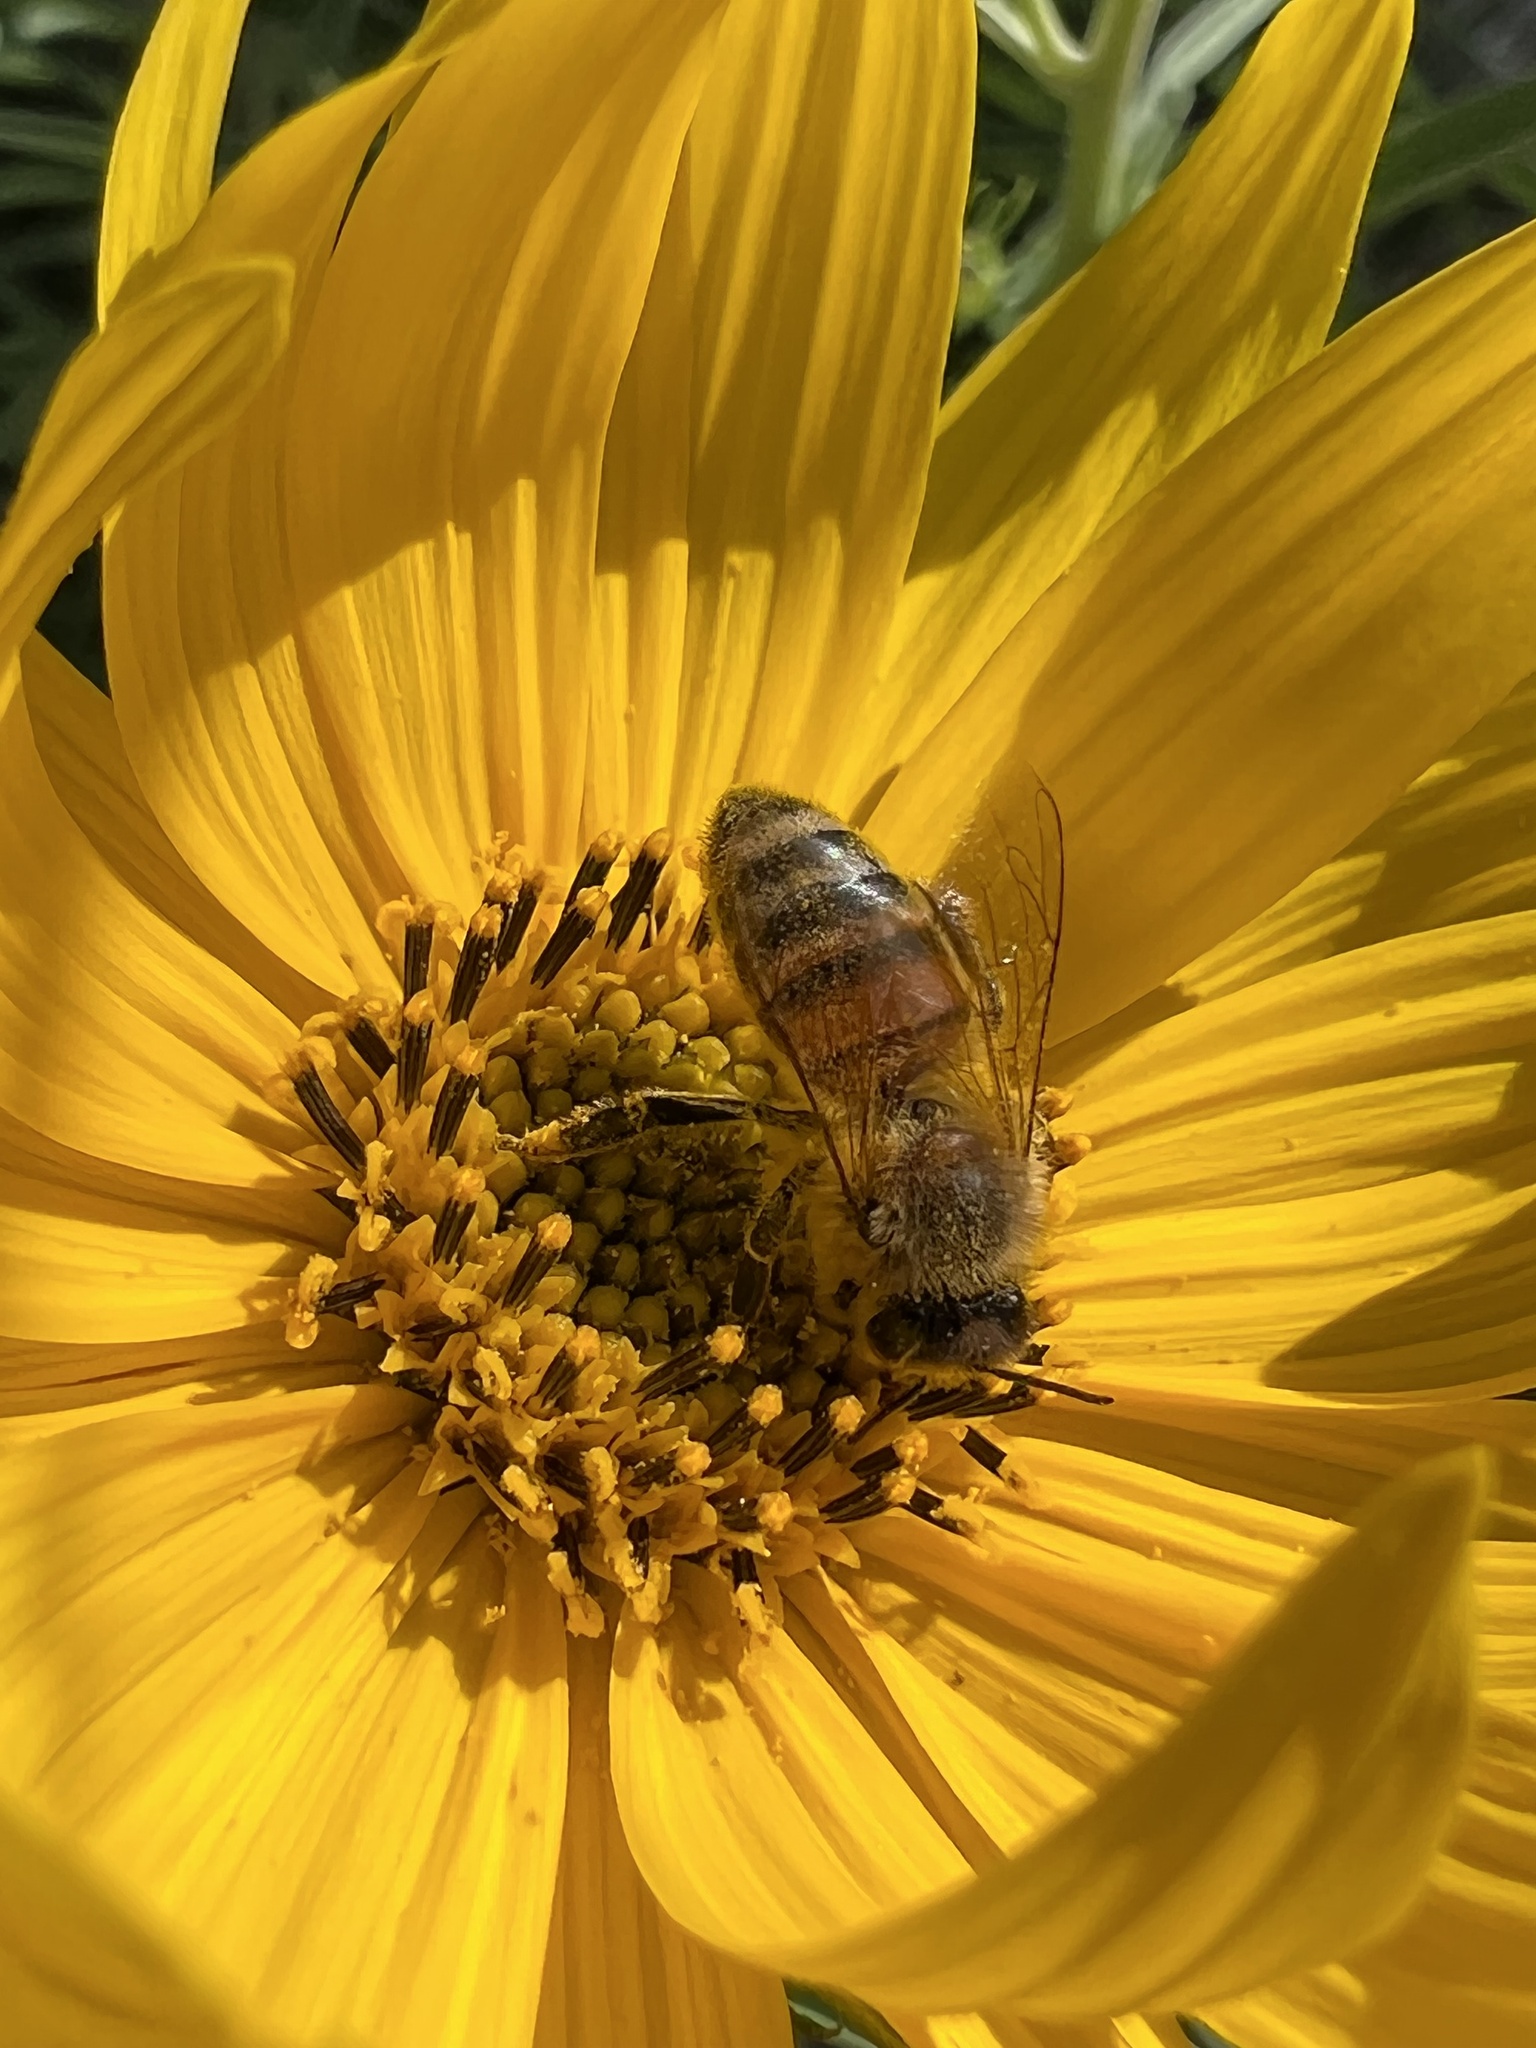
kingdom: Animalia
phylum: Arthropoda
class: Insecta
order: Hymenoptera
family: Apidae
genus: Apis
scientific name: Apis mellifera
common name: Honey bee
